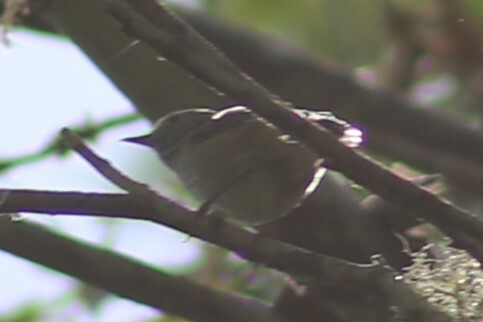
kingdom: Animalia
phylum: Chordata
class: Aves
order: Passeriformes
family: Acanthizidae
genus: Acanthiza
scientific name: Acanthiza pusilla
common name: Brown thornbill
